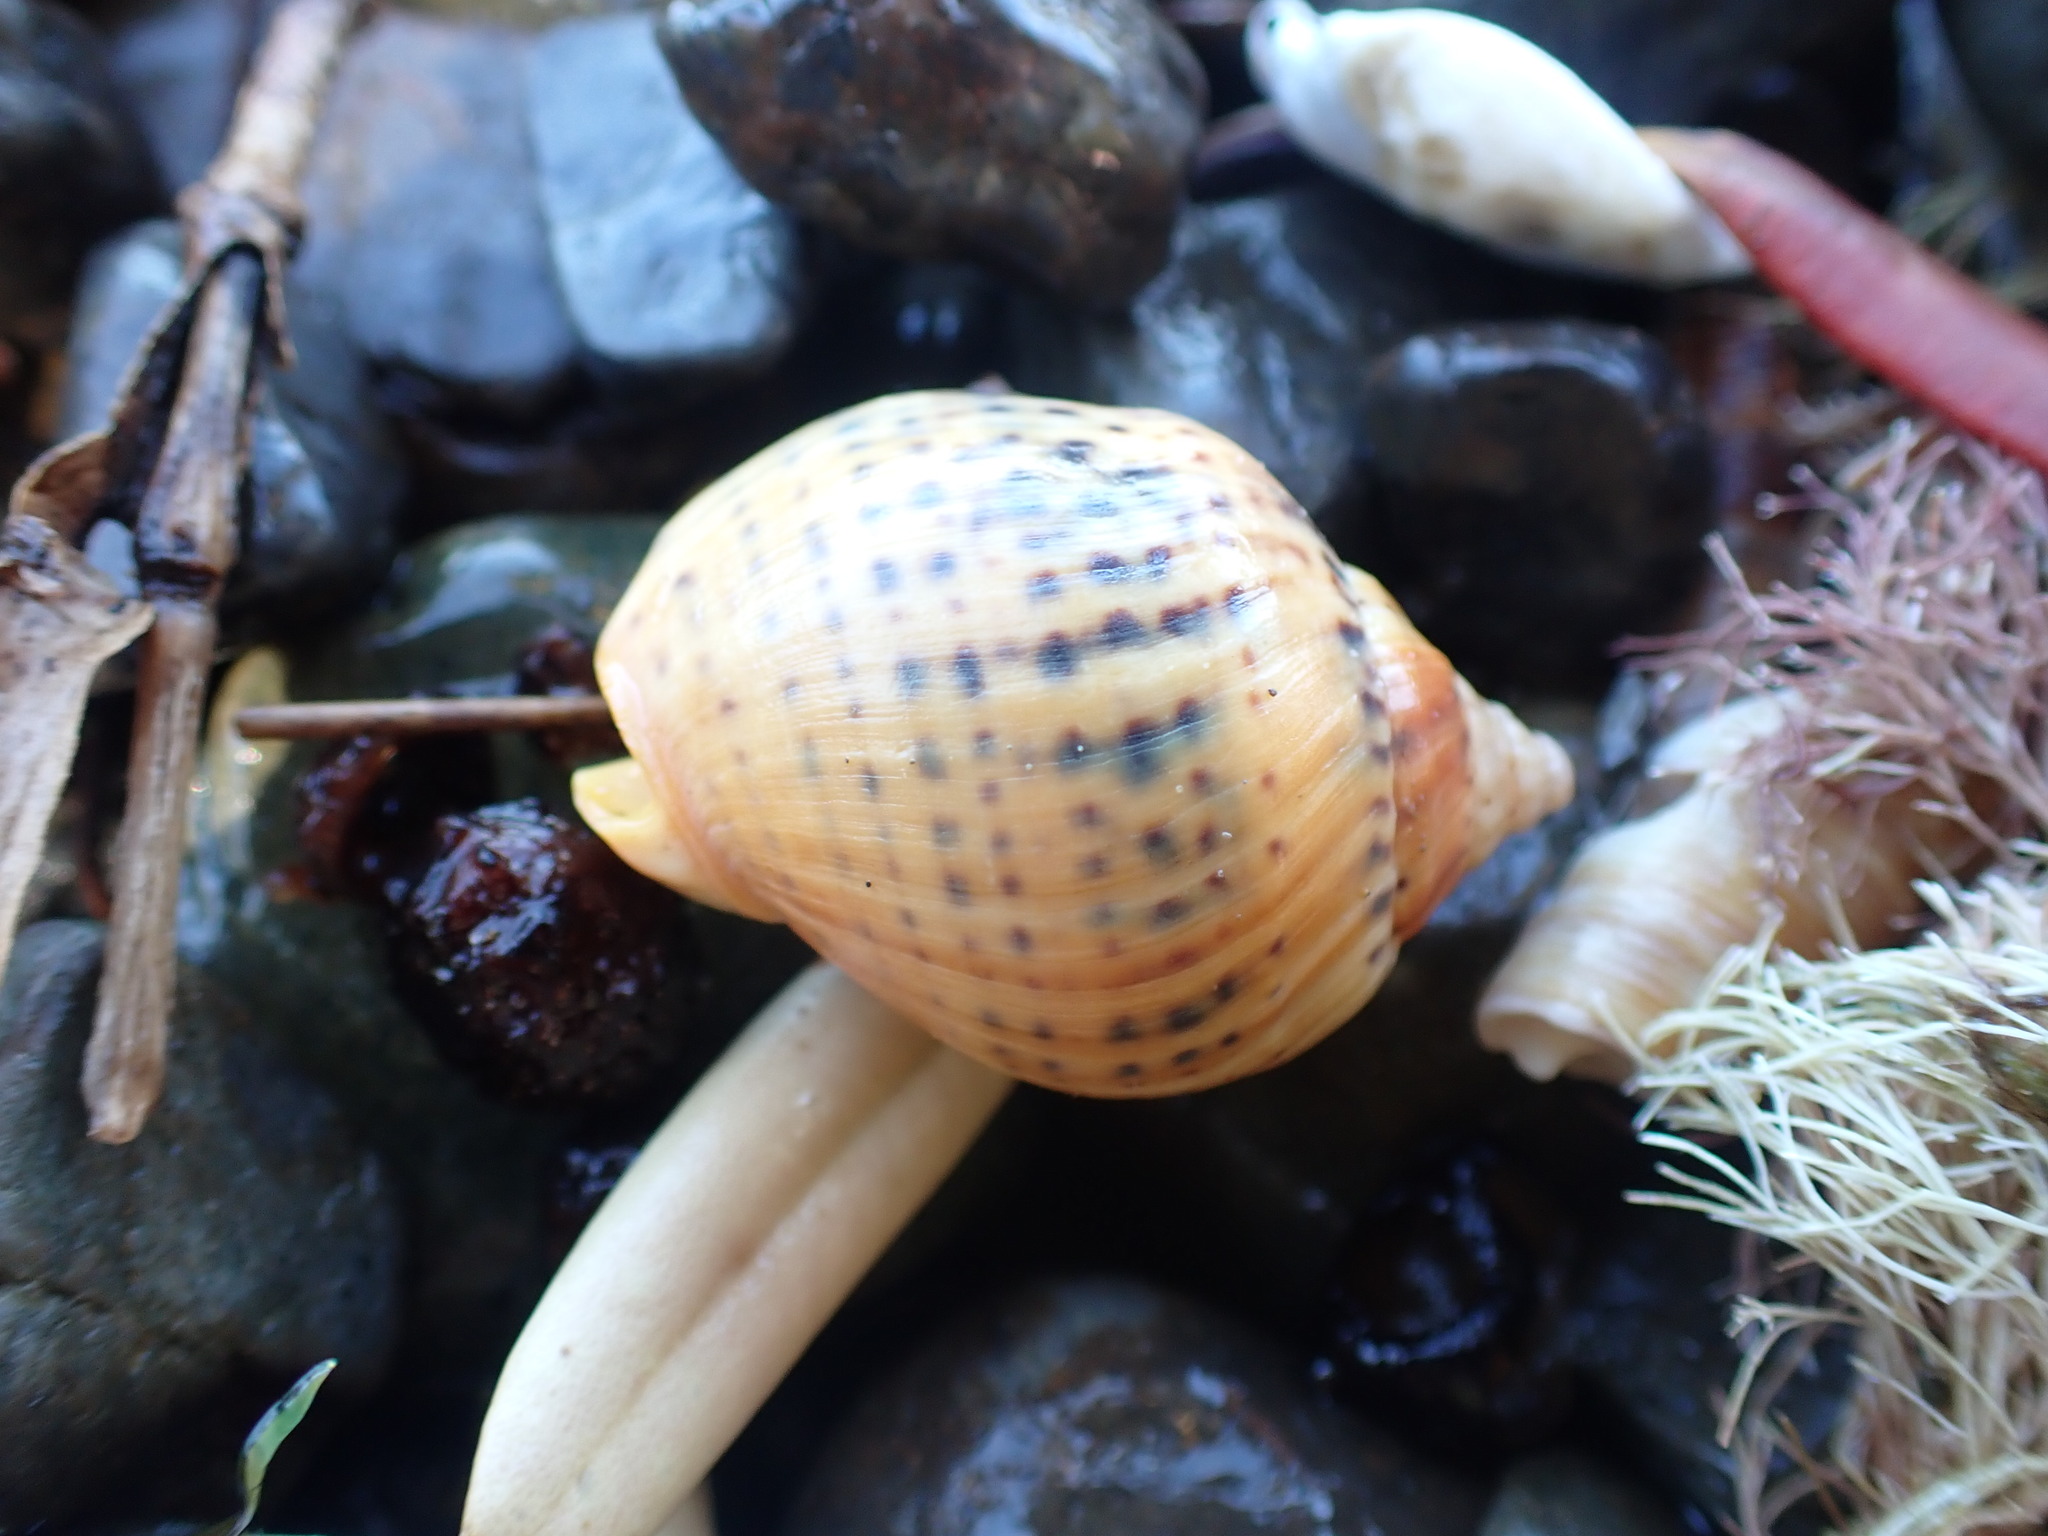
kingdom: Animalia
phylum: Mollusca
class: Gastropoda
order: Neogastropoda
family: Cominellidae
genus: Cominella
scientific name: Cominella adspersa
